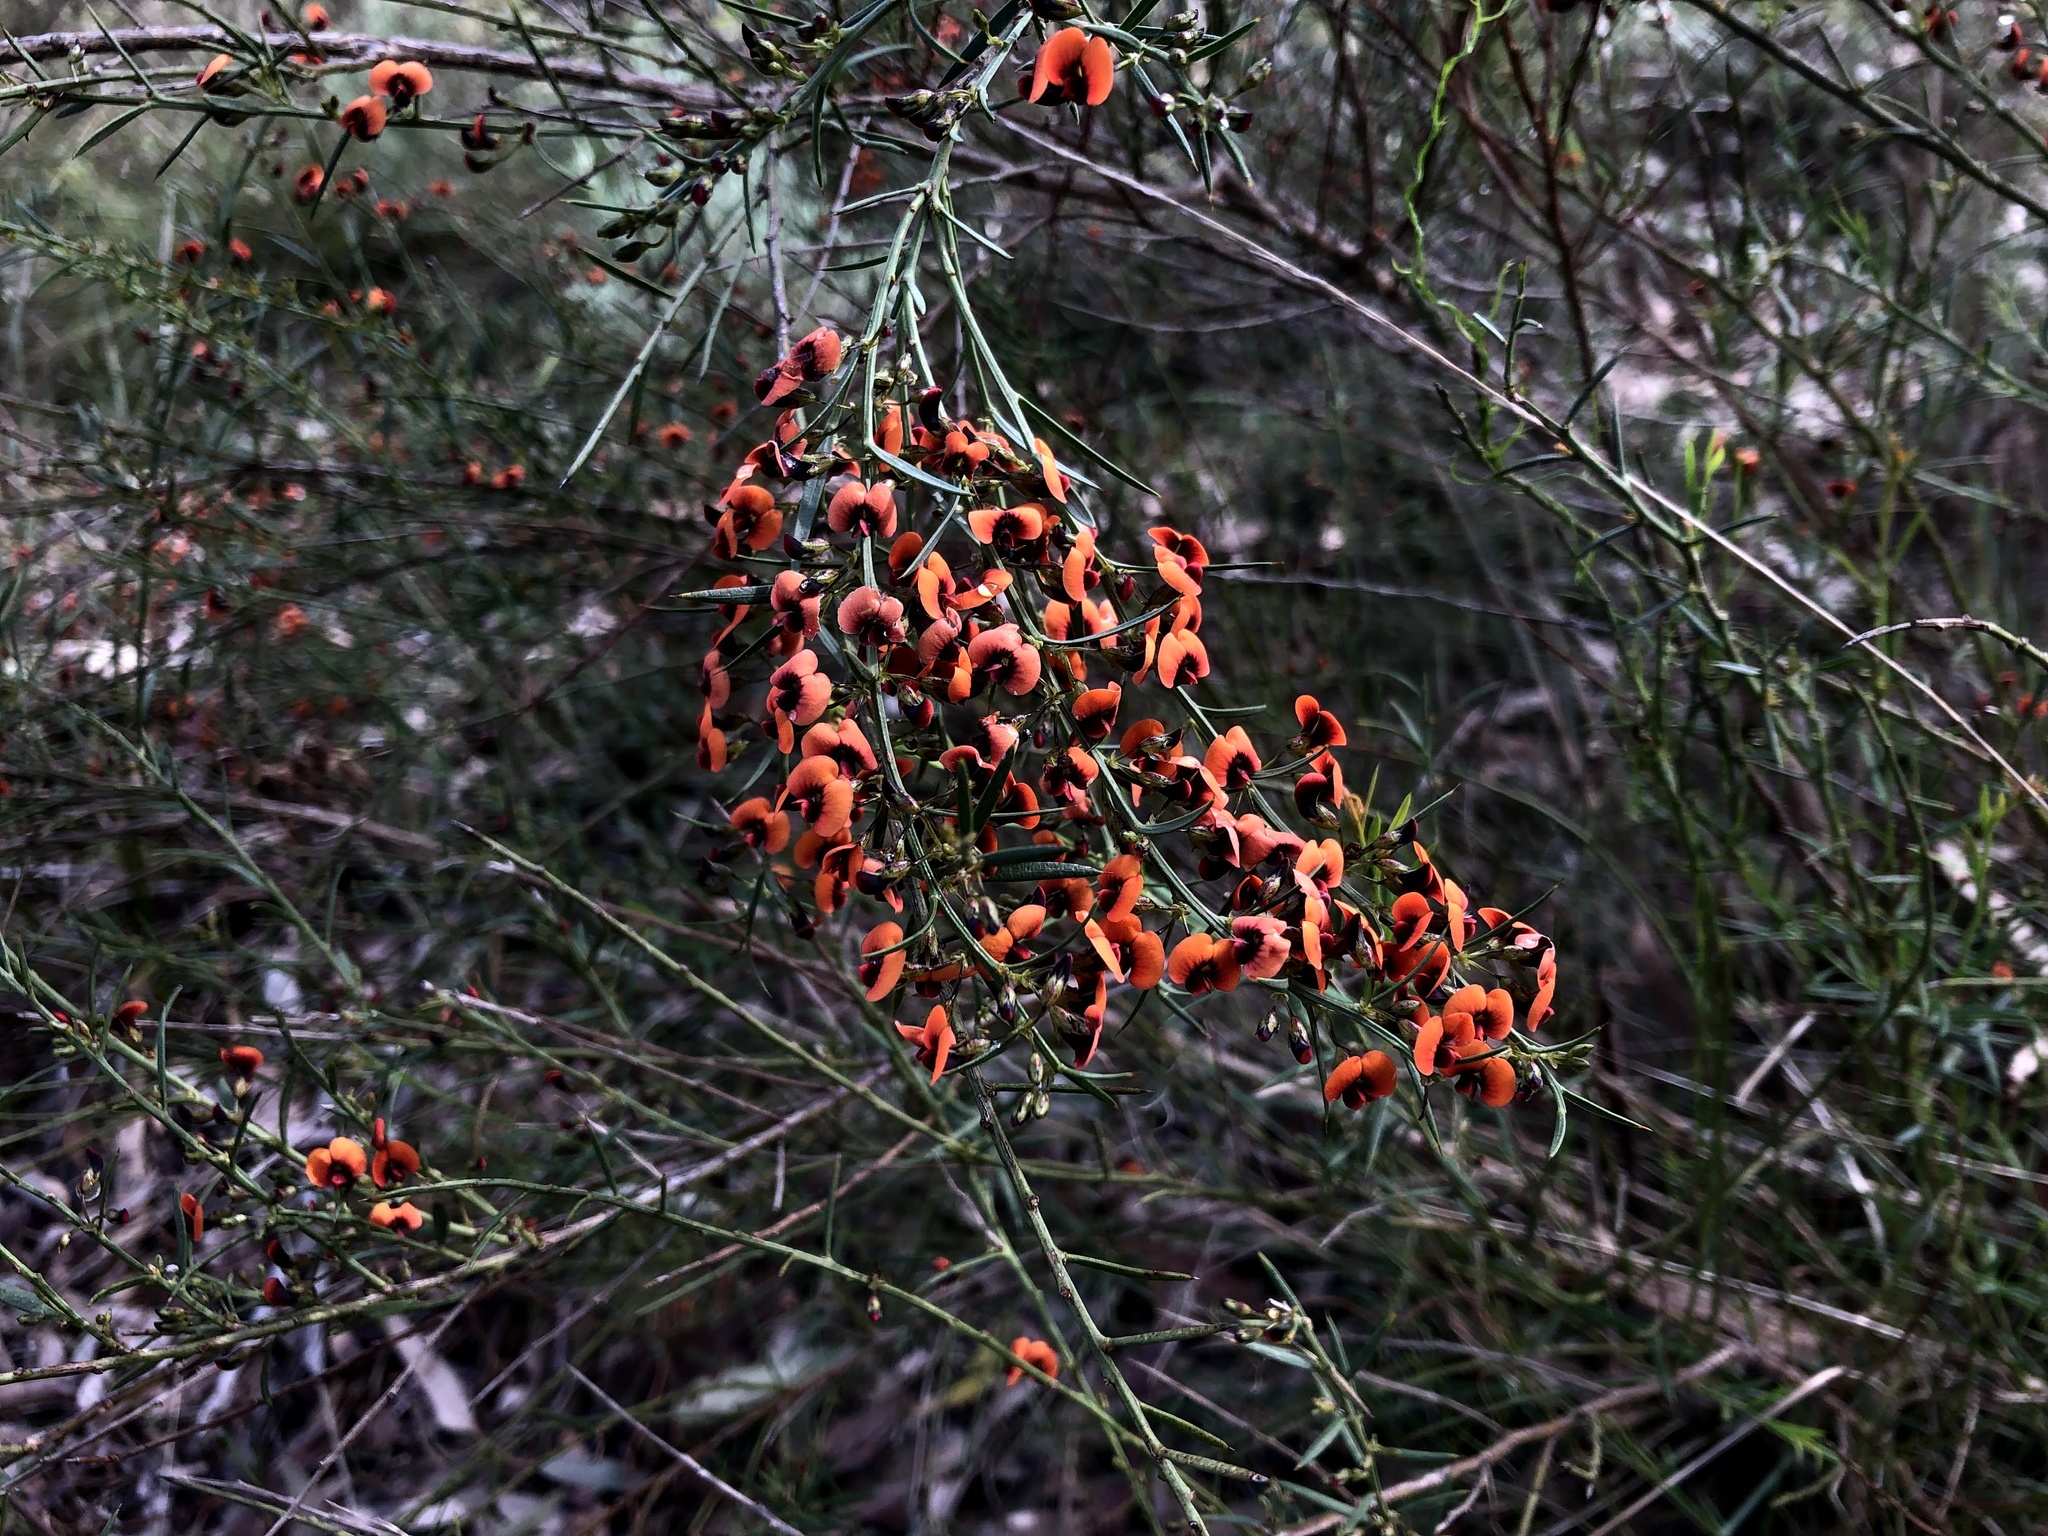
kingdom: Plantae
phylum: Tracheophyta
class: Magnoliopsida
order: Fabales
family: Fabaceae
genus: Daviesia
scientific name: Daviesia ulicifolia
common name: Gorse bitter-pea
